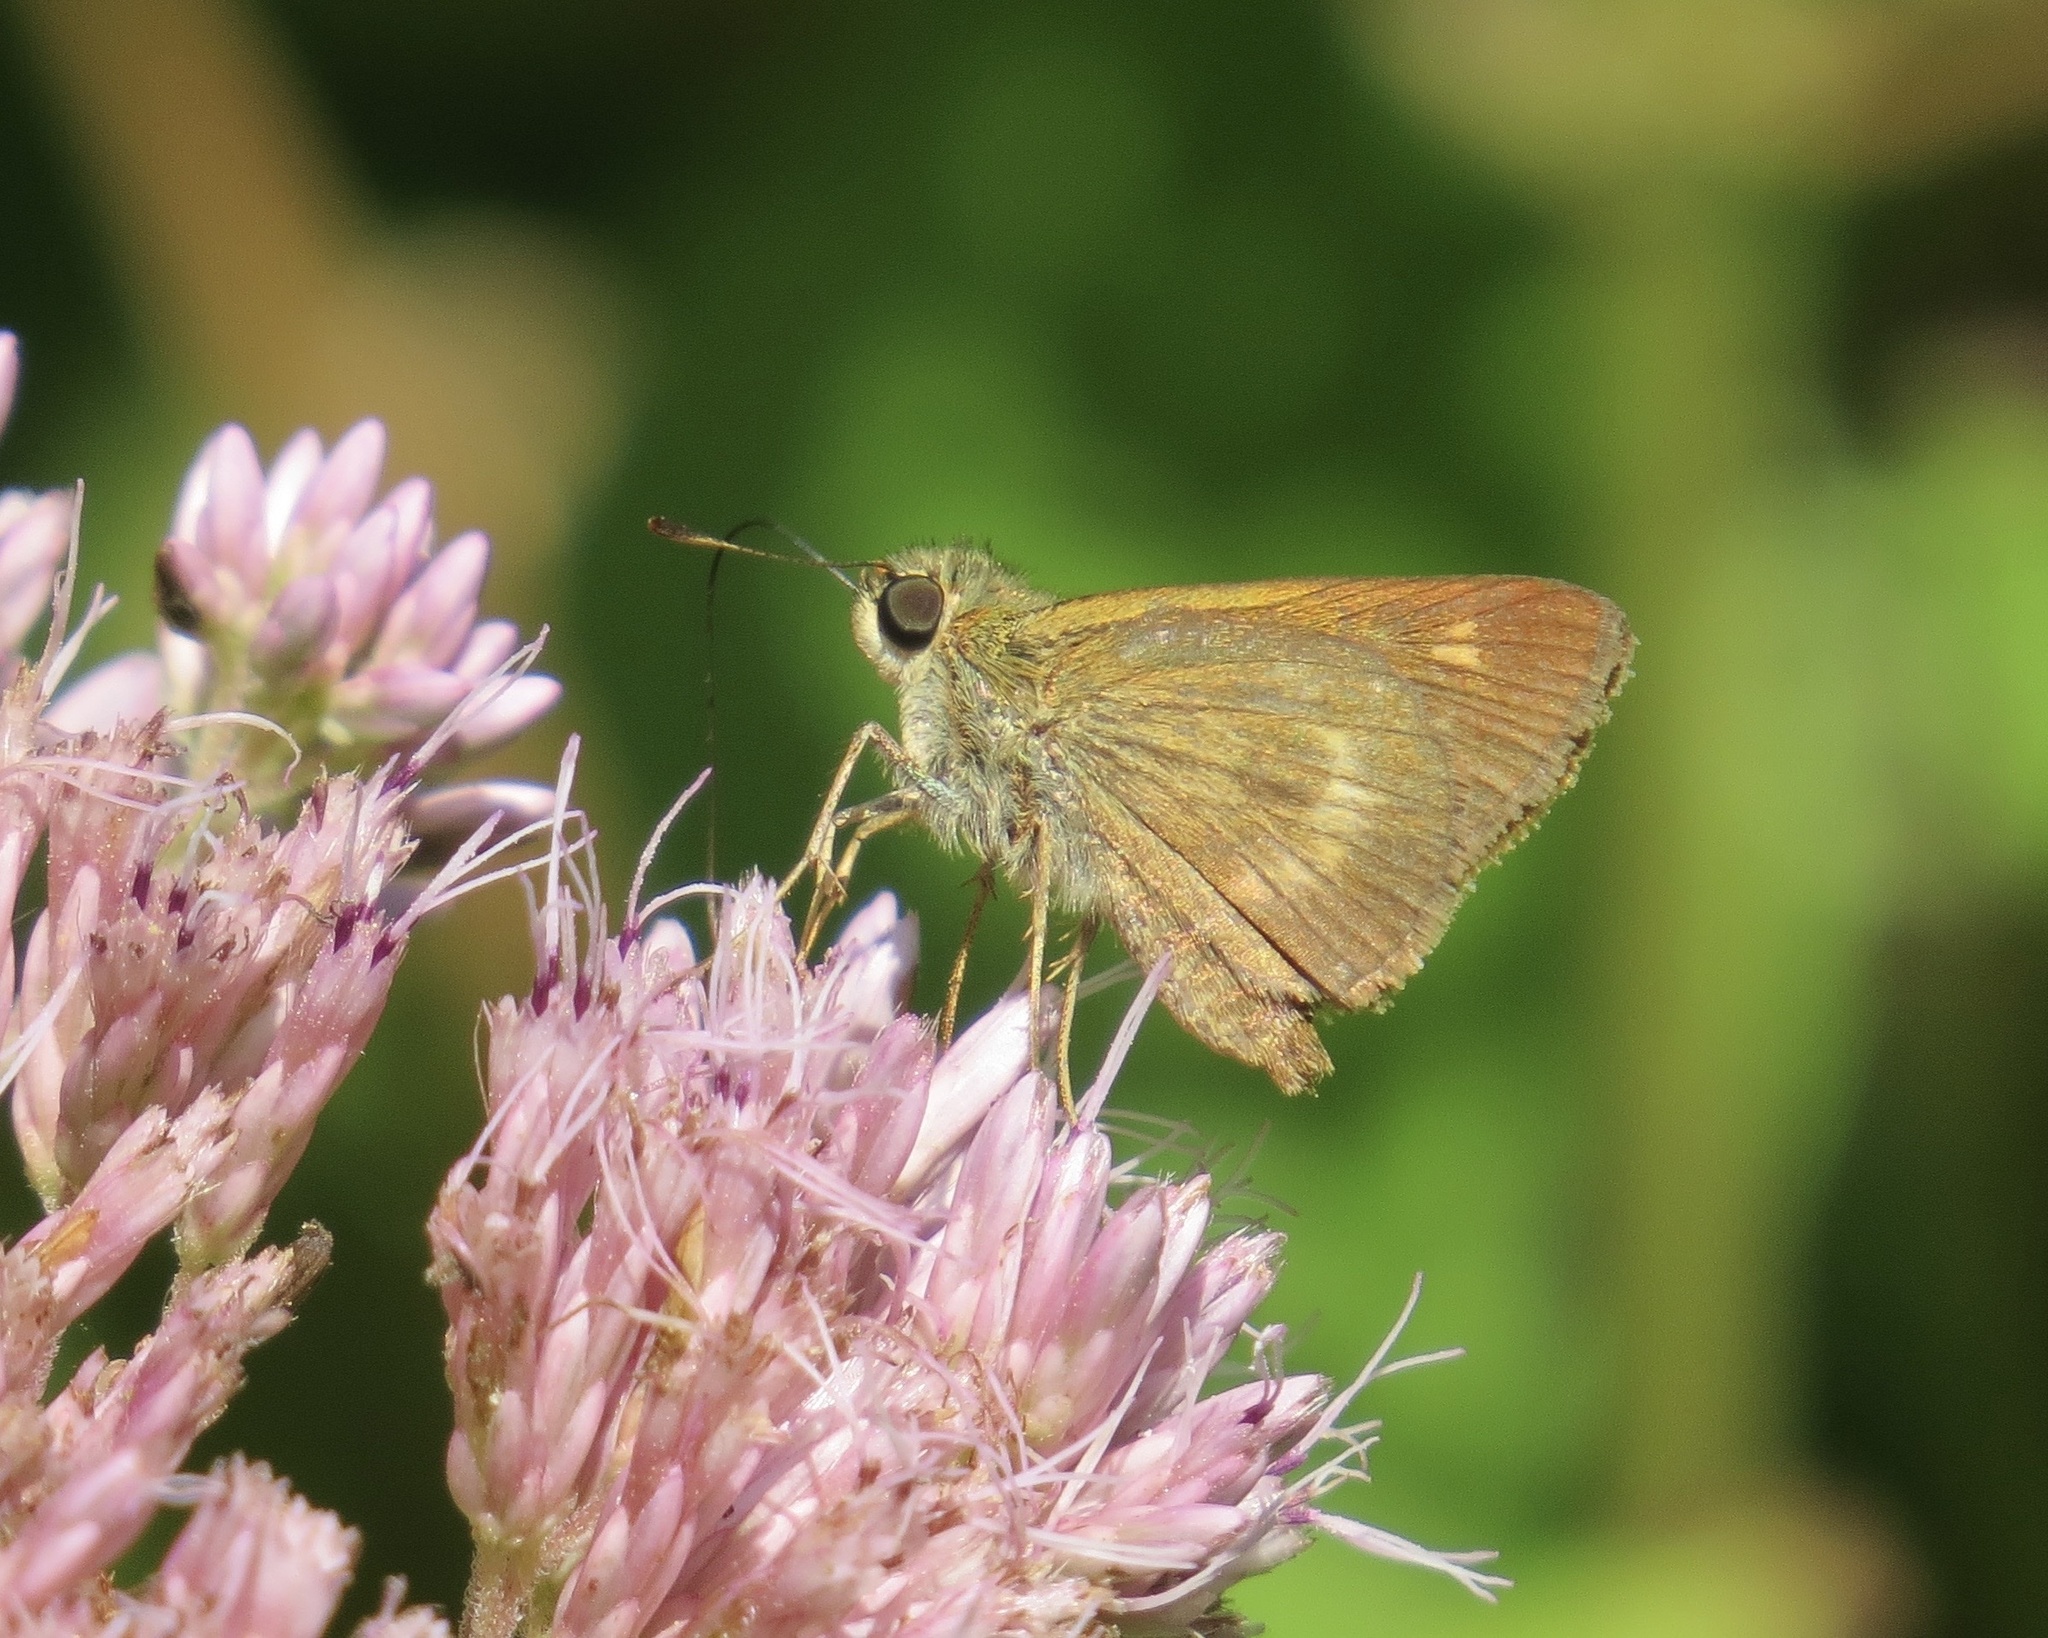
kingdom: Animalia
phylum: Arthropoda
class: Insecta
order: Lepidoptera
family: Hesperiidae
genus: Polites
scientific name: Polites egeremet
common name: Northern broken-dash
